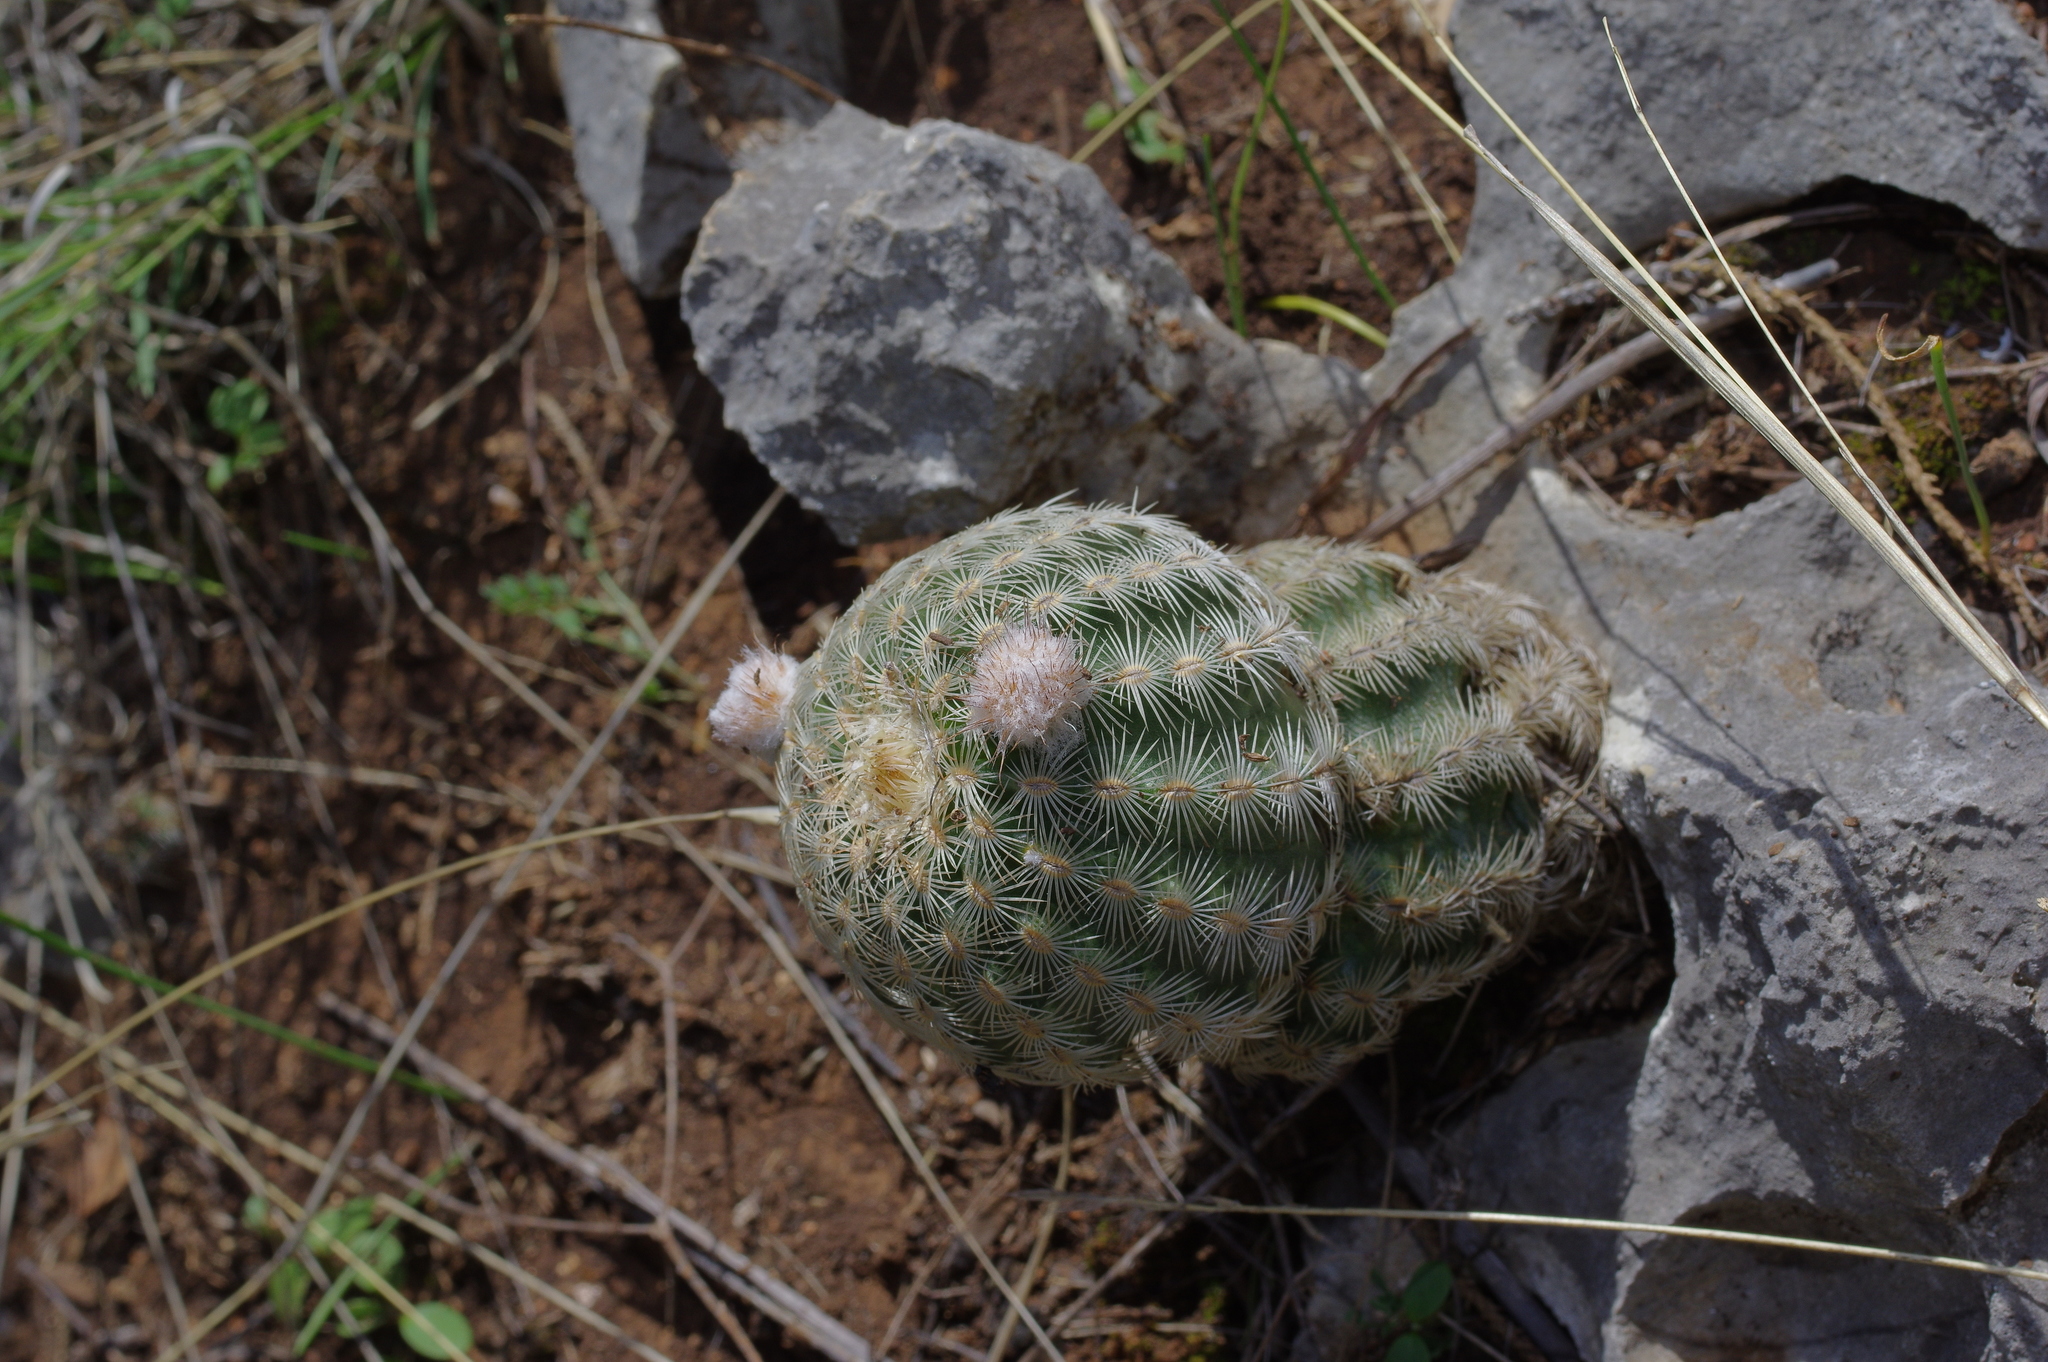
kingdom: Plantae
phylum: Tracheophyta
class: Magnoliopsida
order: Caryophyllales
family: Cactaceae
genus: Echinocereus
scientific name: Echinocereus reichenbachii
